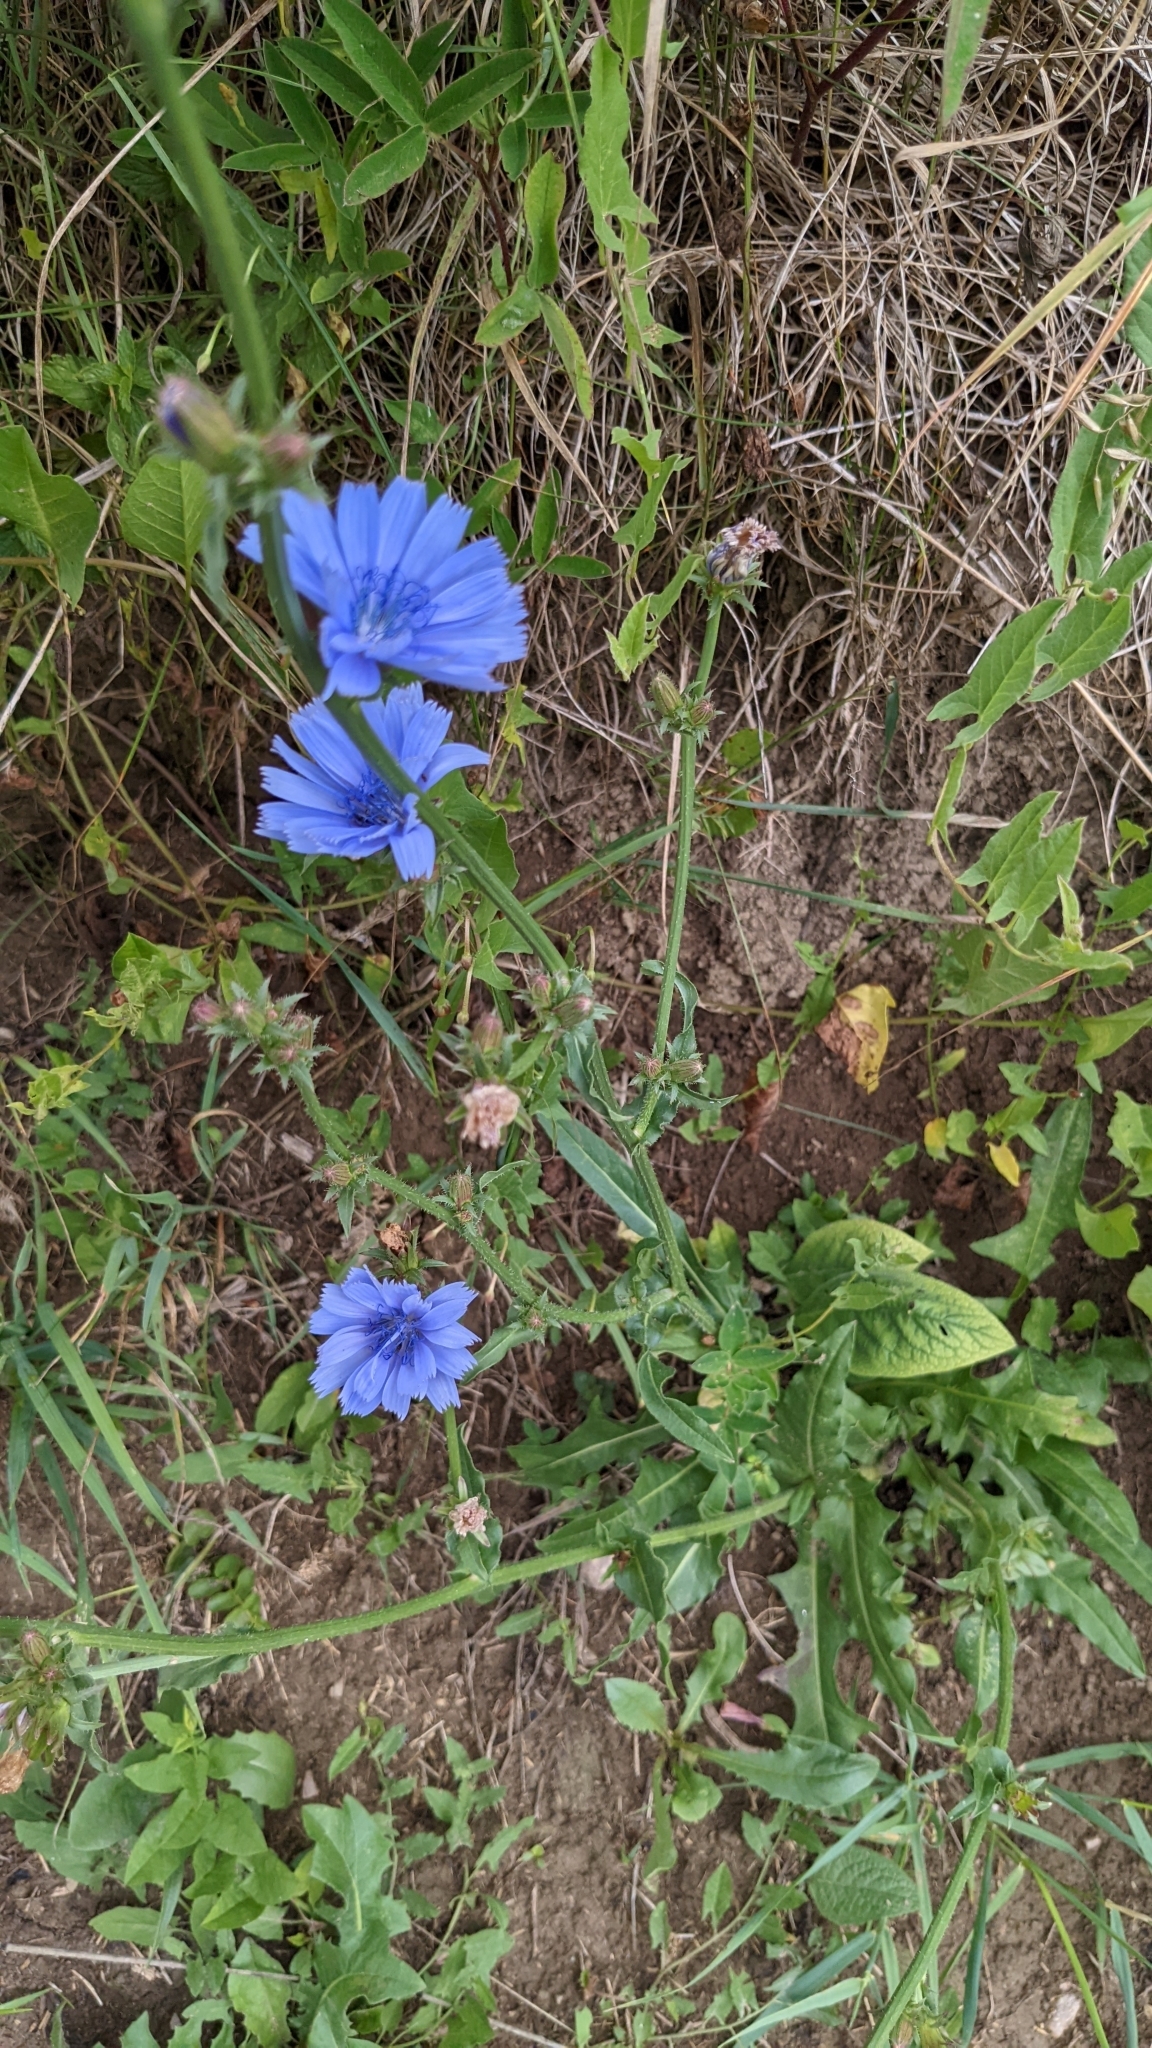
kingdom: Plantae
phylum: Tracheophyta
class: Magnoliopsida
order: Asterales
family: Asteraceae
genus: Cichorium
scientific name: Cichorium intybus
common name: Chicory
